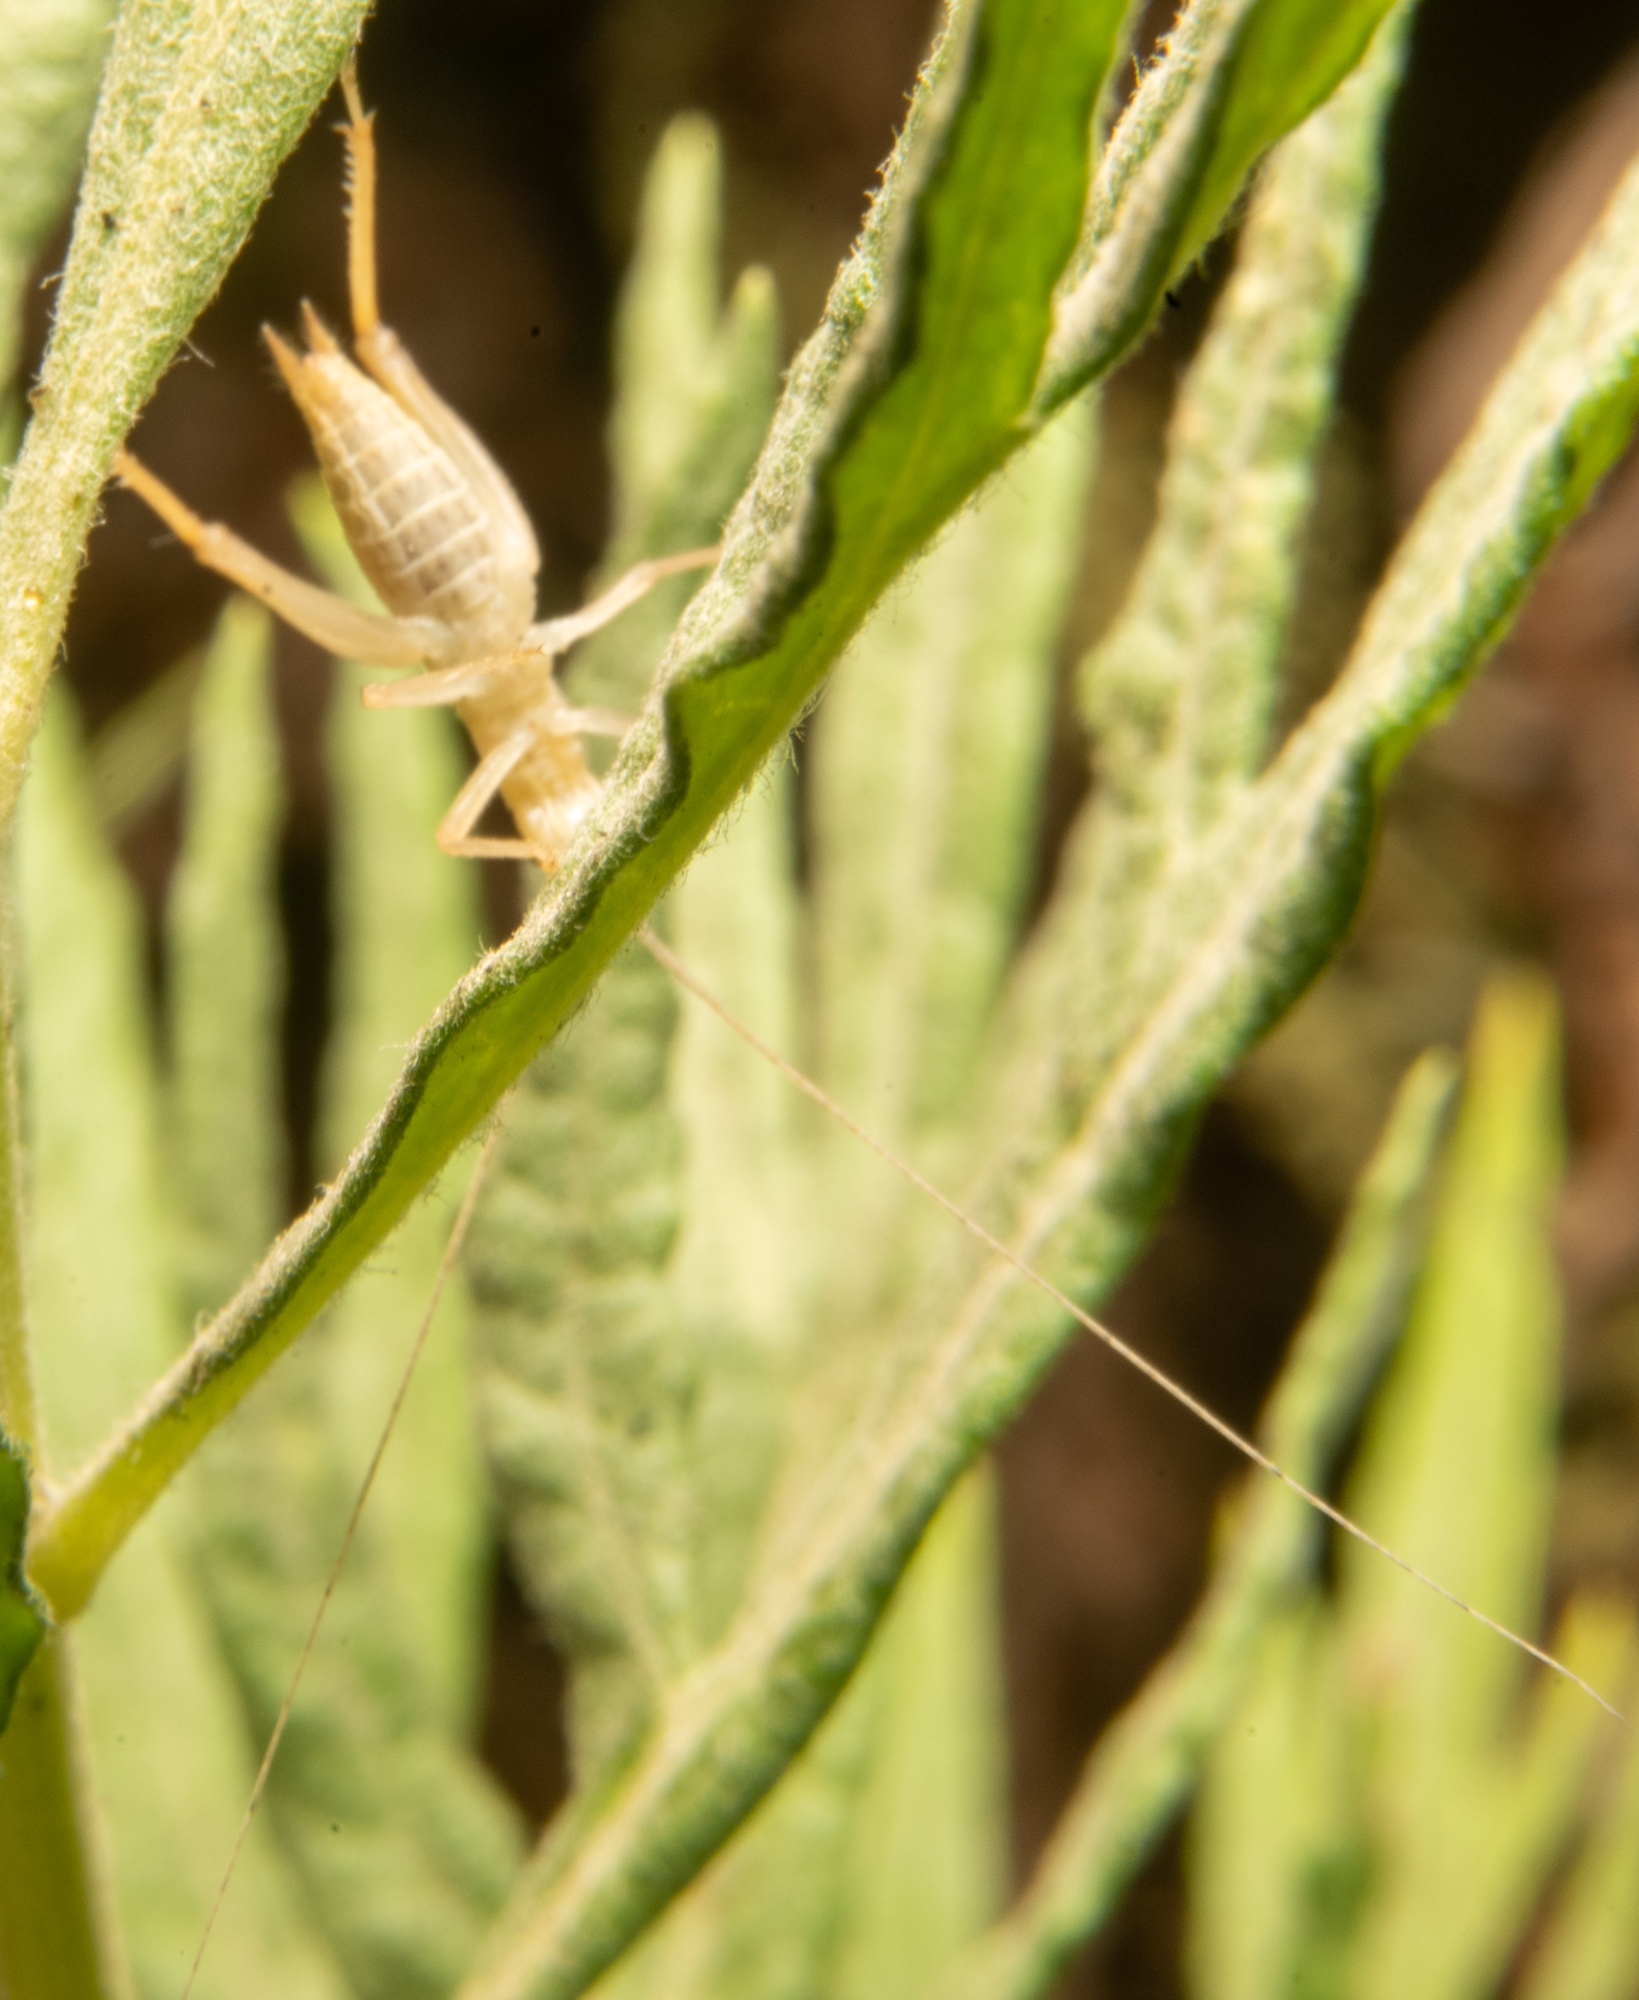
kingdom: Animalia
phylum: Arthropoda
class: Insecta
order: Orthoptera
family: Gryllidae
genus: Oecanthus
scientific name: Oecanthus californicus
